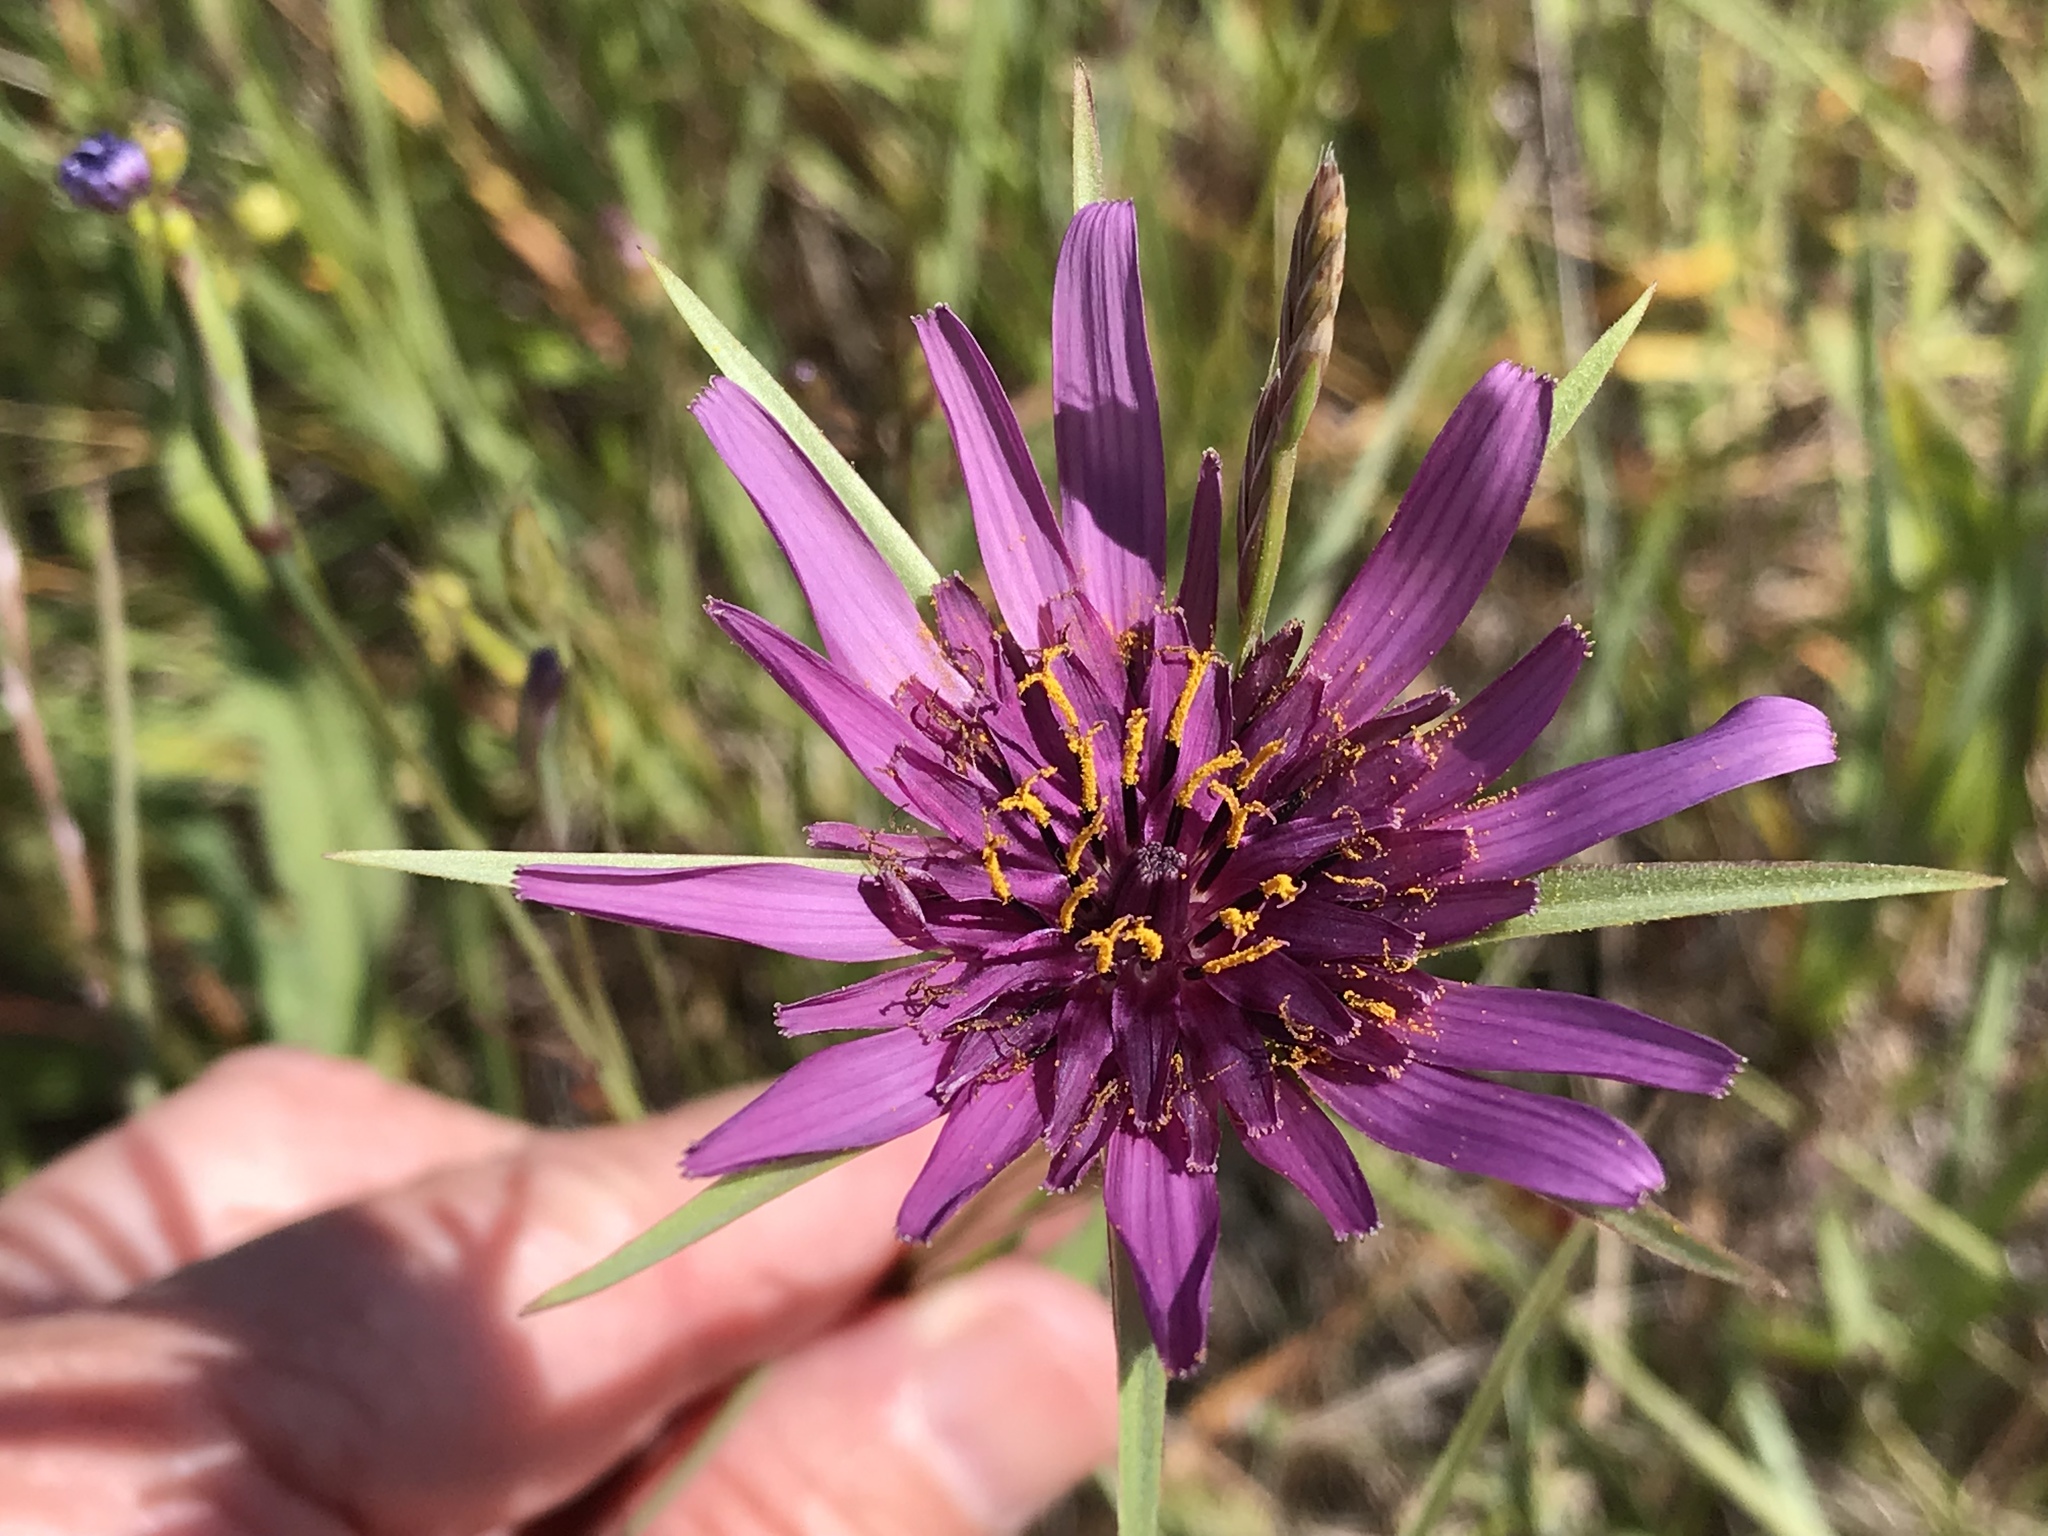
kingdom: Plantae
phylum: Tracheophyta
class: Magnoliopsida
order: Asterales
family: Asteraceae
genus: Tragopogon
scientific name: Tragopogon porrifolius
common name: Salsify
